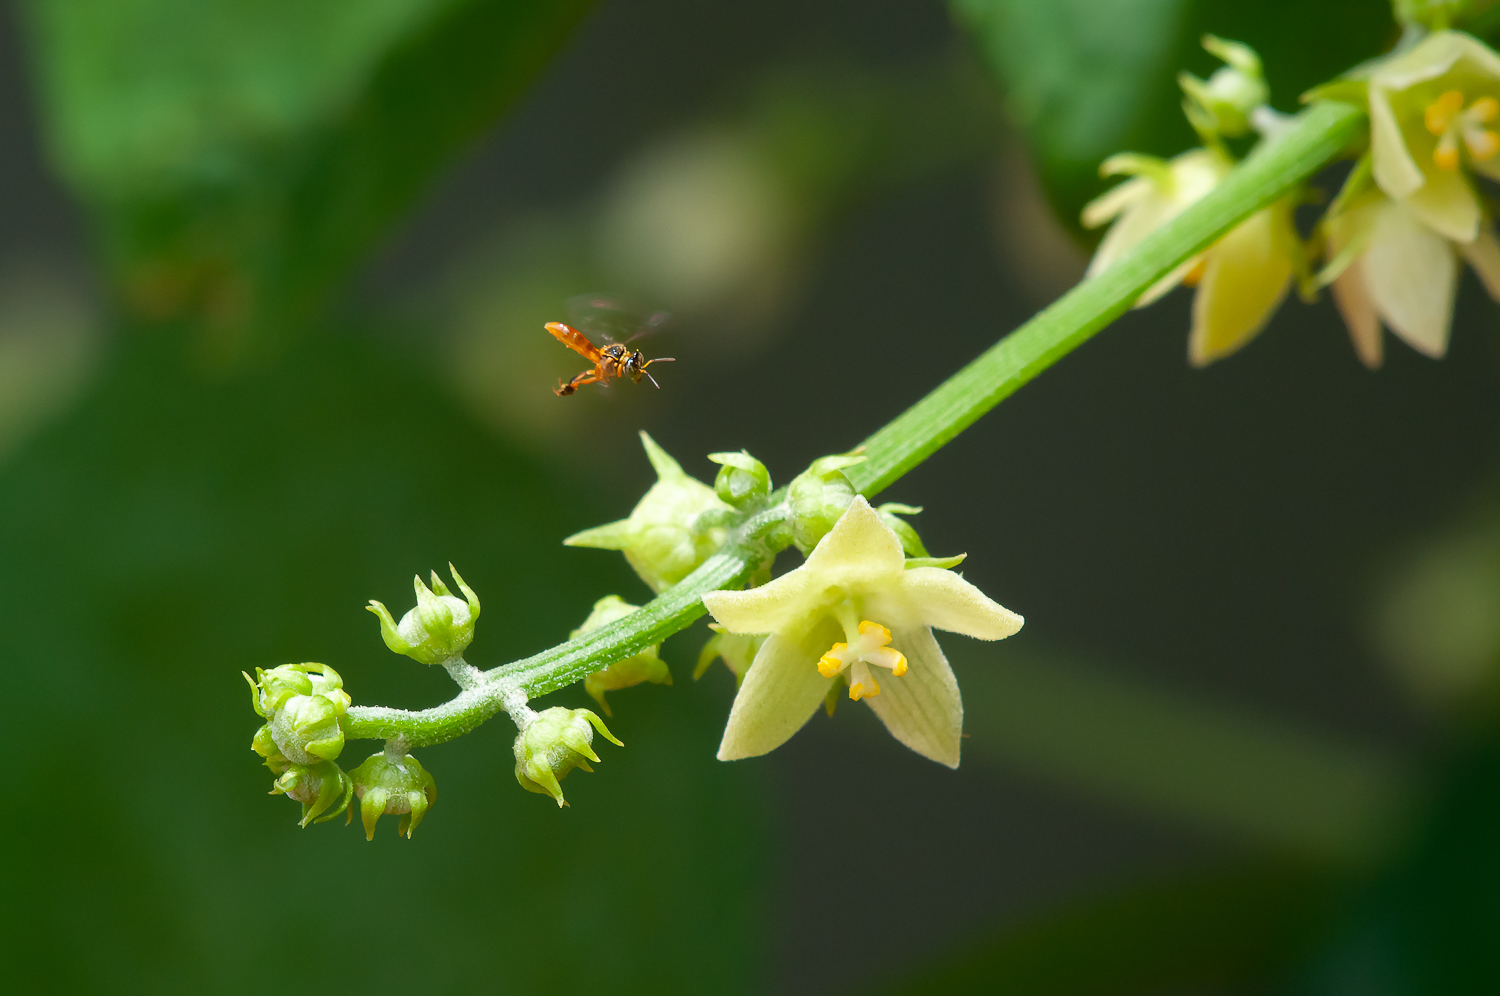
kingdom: Animalia
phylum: Arthropoda
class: Insecta
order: Hymenoptera
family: Apidae
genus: Tetragonisca
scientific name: Tetragonisca angustula
